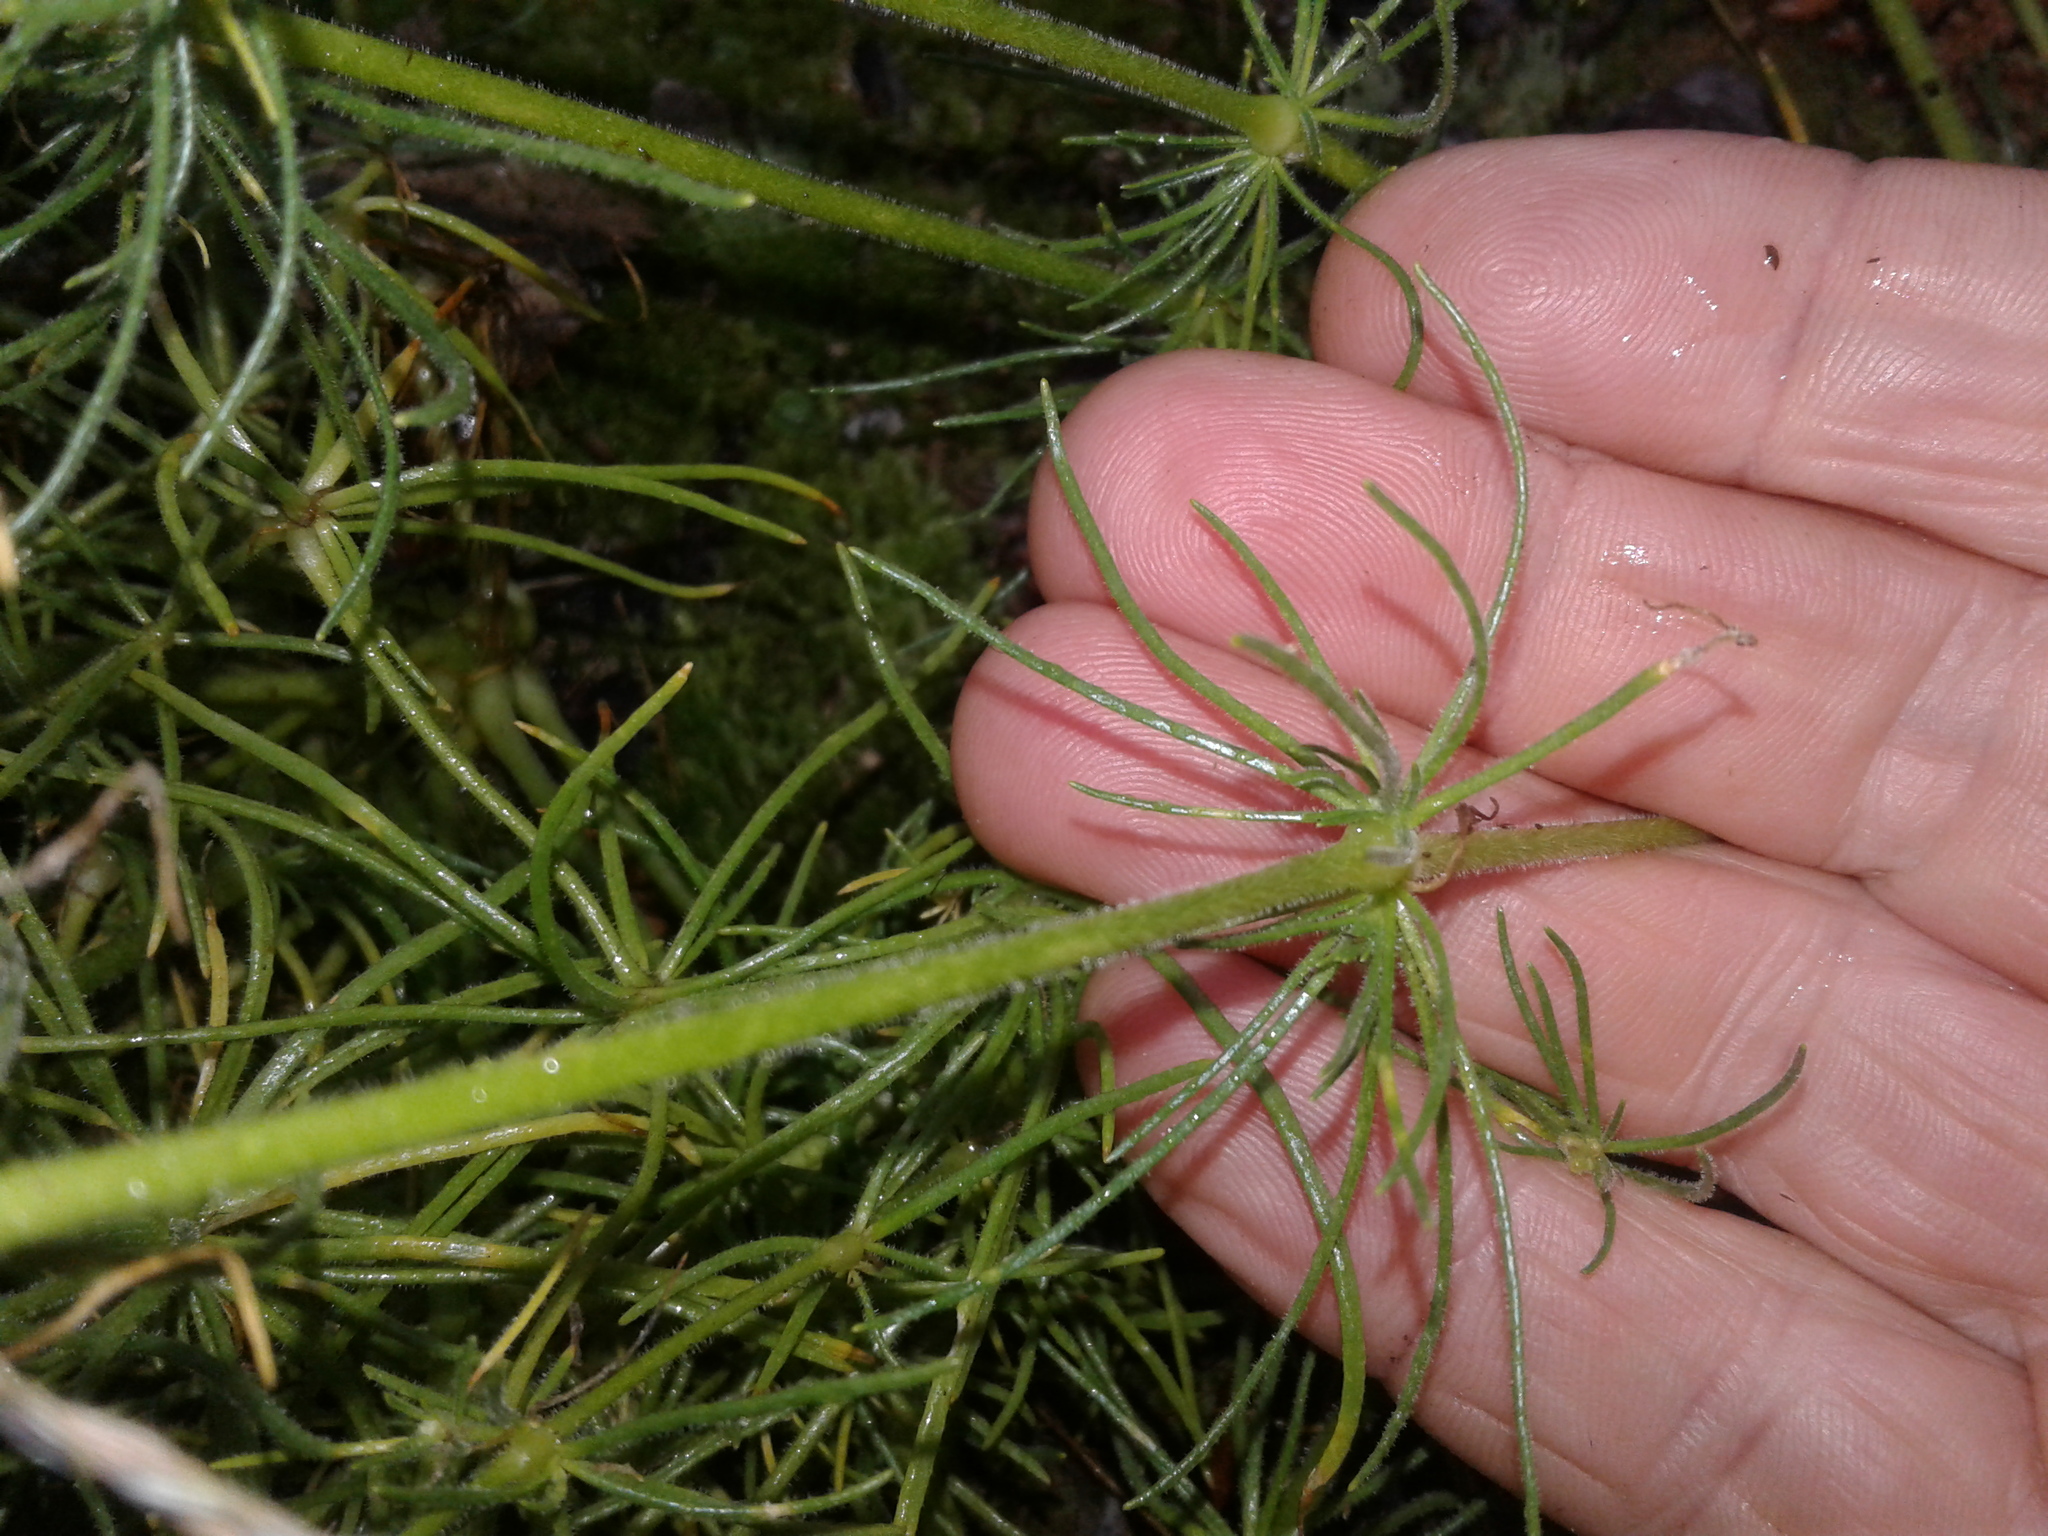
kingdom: Plantae
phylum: Tracheophyta
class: Magnoliopsida
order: Caryophyllales
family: Caryophyllaceae
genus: Spergula
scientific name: Spergula arvensis
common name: Corn spurrey
